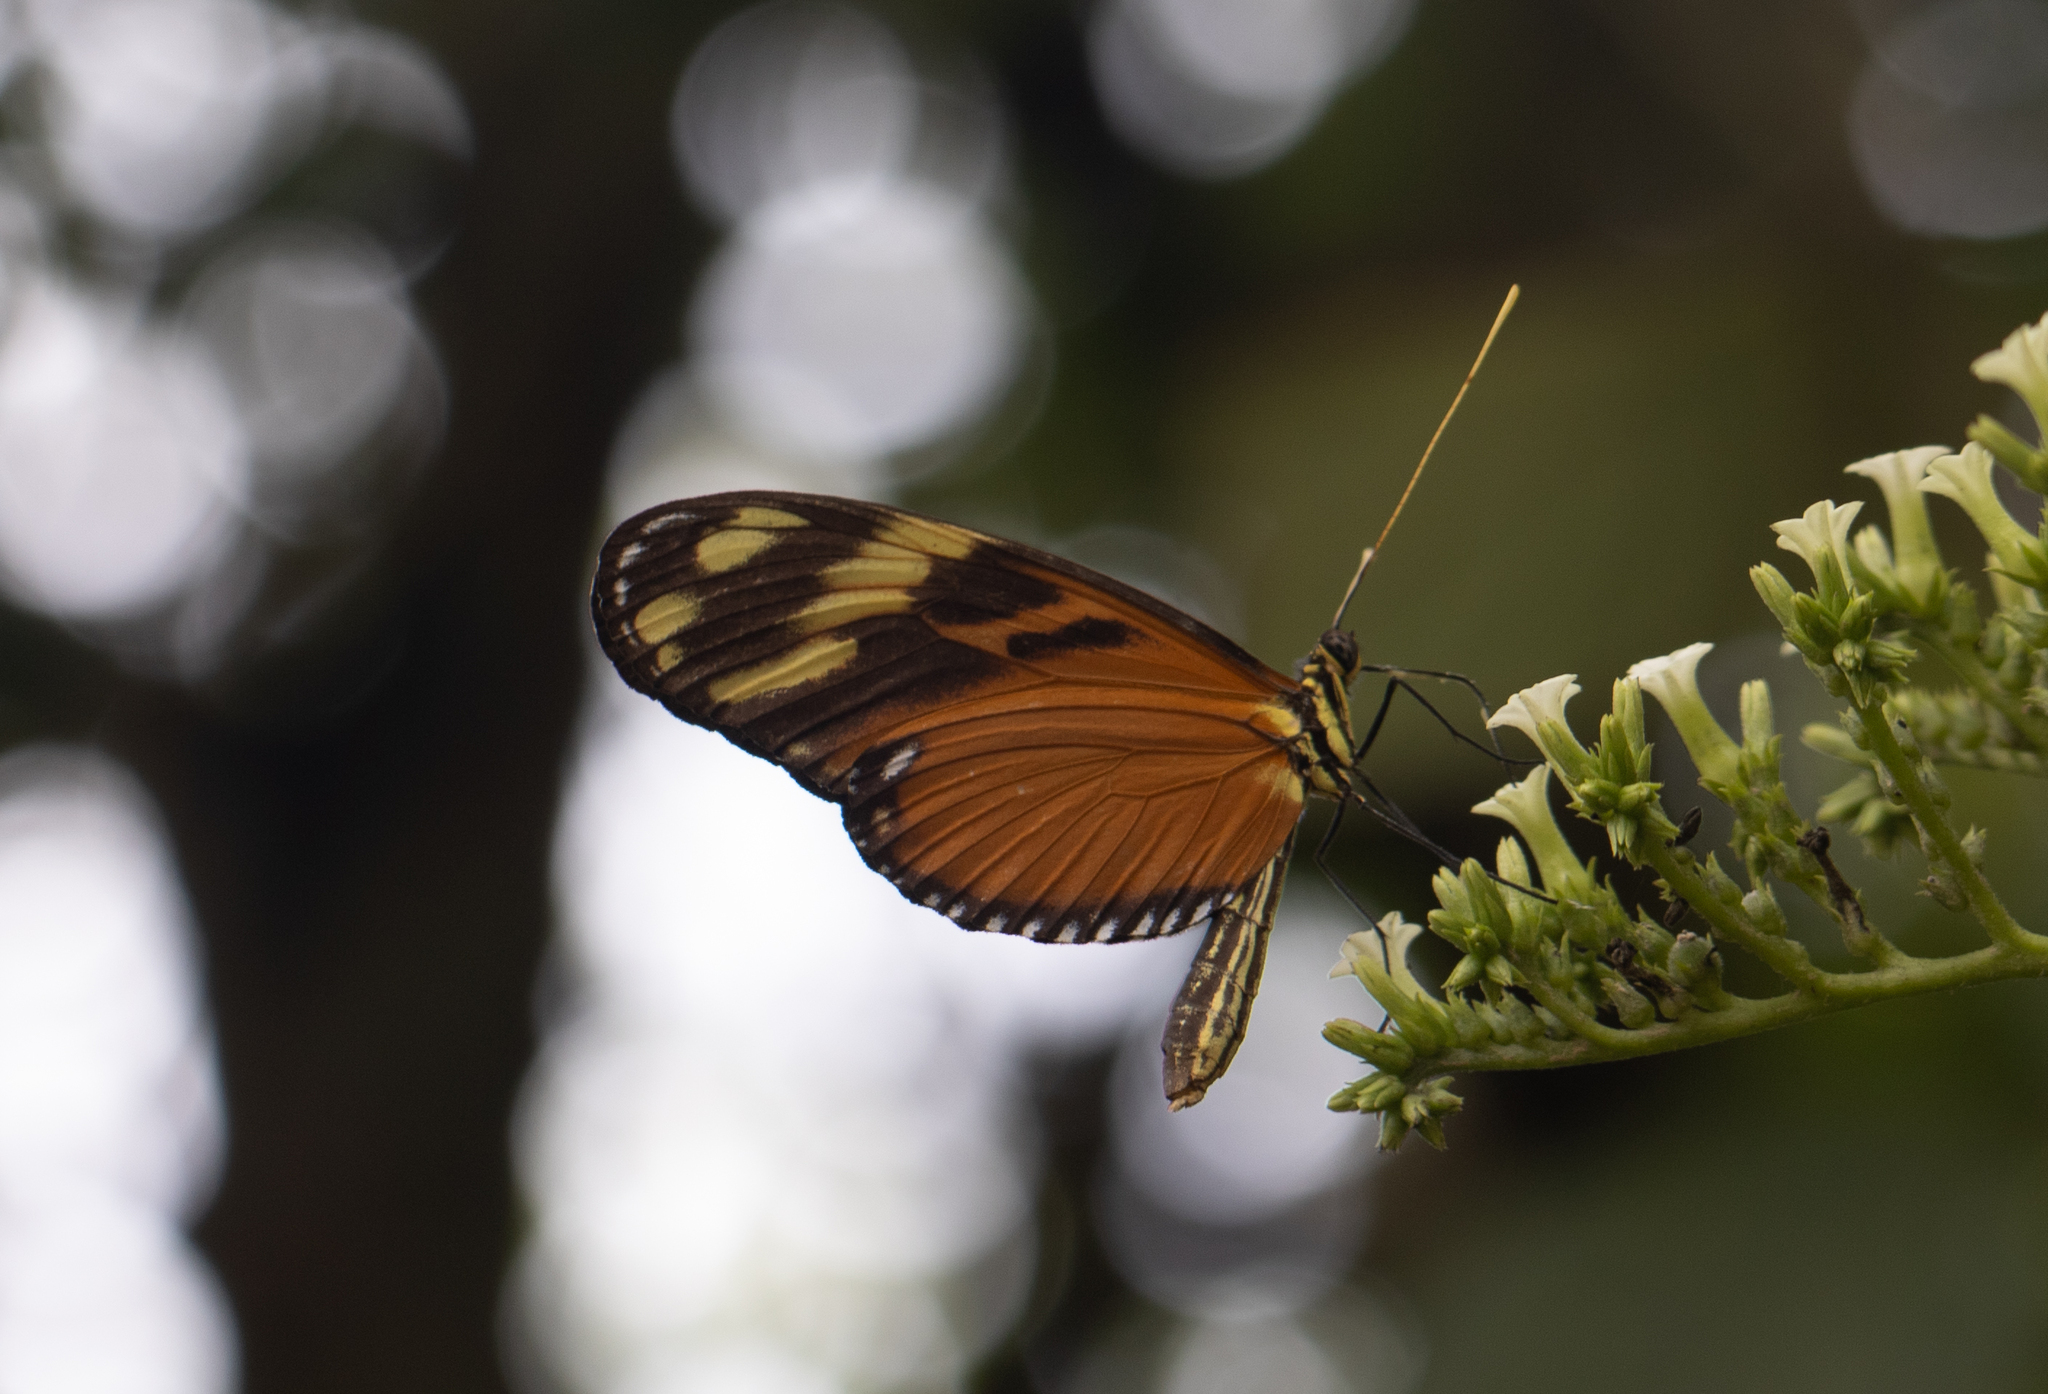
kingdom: Animalia
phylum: Arthropoda
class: Insecta
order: Lepidoptera
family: Nymphalidae
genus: Heliconius
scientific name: Heliconius ismenius
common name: Ismenius tiger
